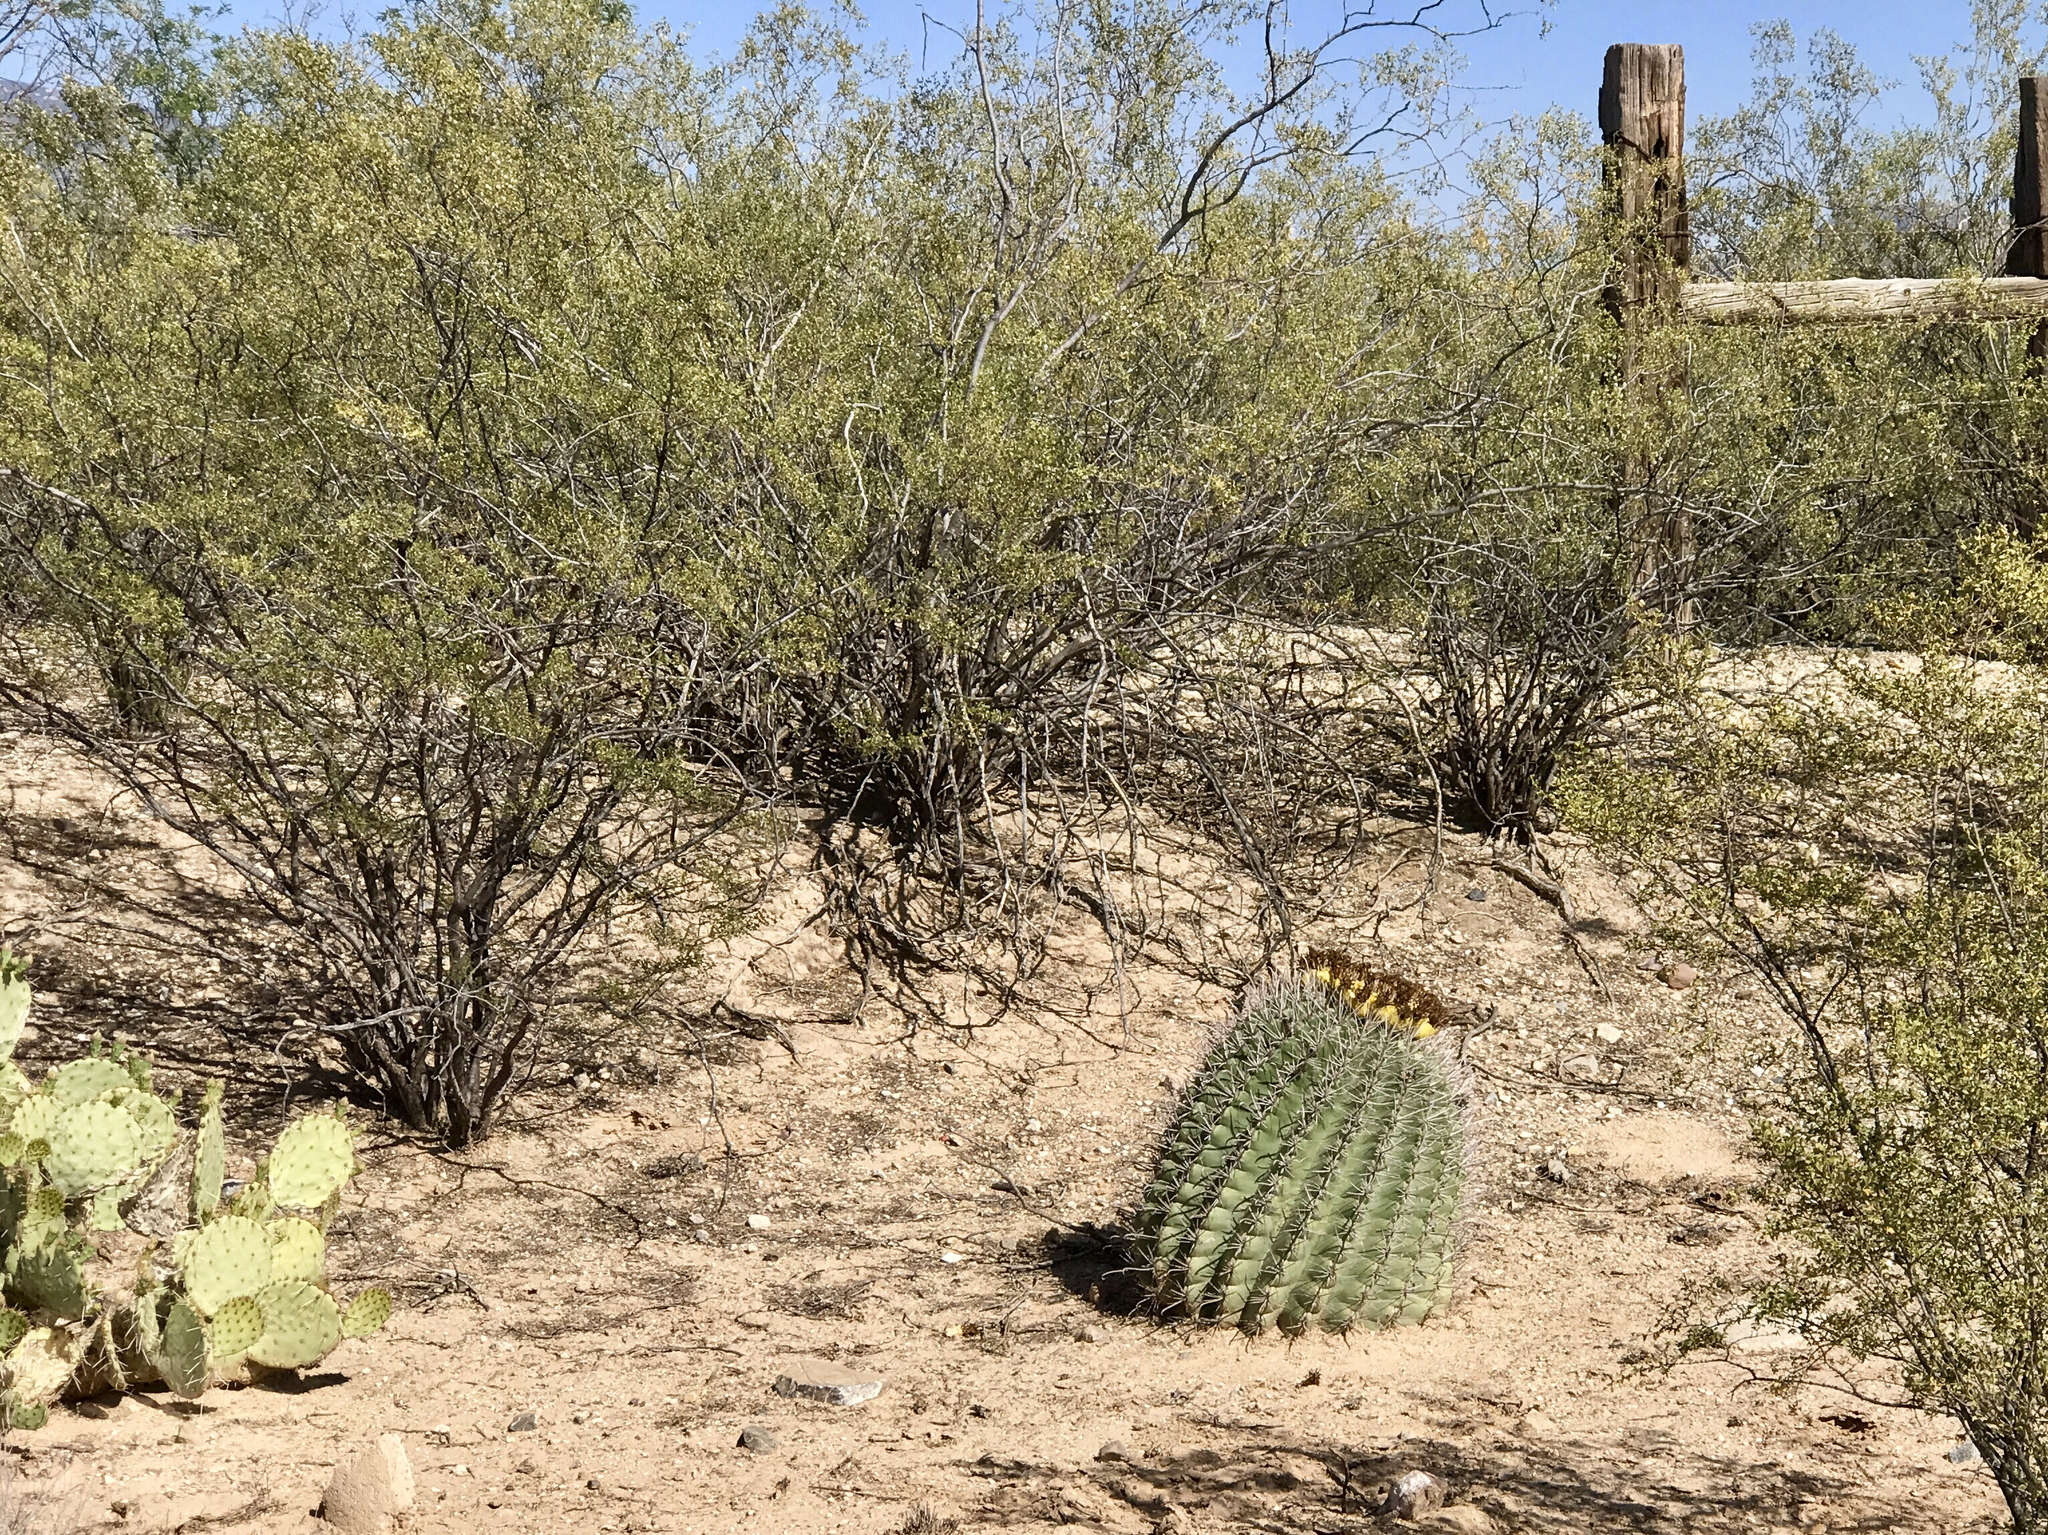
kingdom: Plantae
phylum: Tracheophyta
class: Magnoliopsida
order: Caryophyllales
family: Cactaceae
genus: Ferocactus
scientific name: Ferocactus wislizeni
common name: Candy barrel cactus
